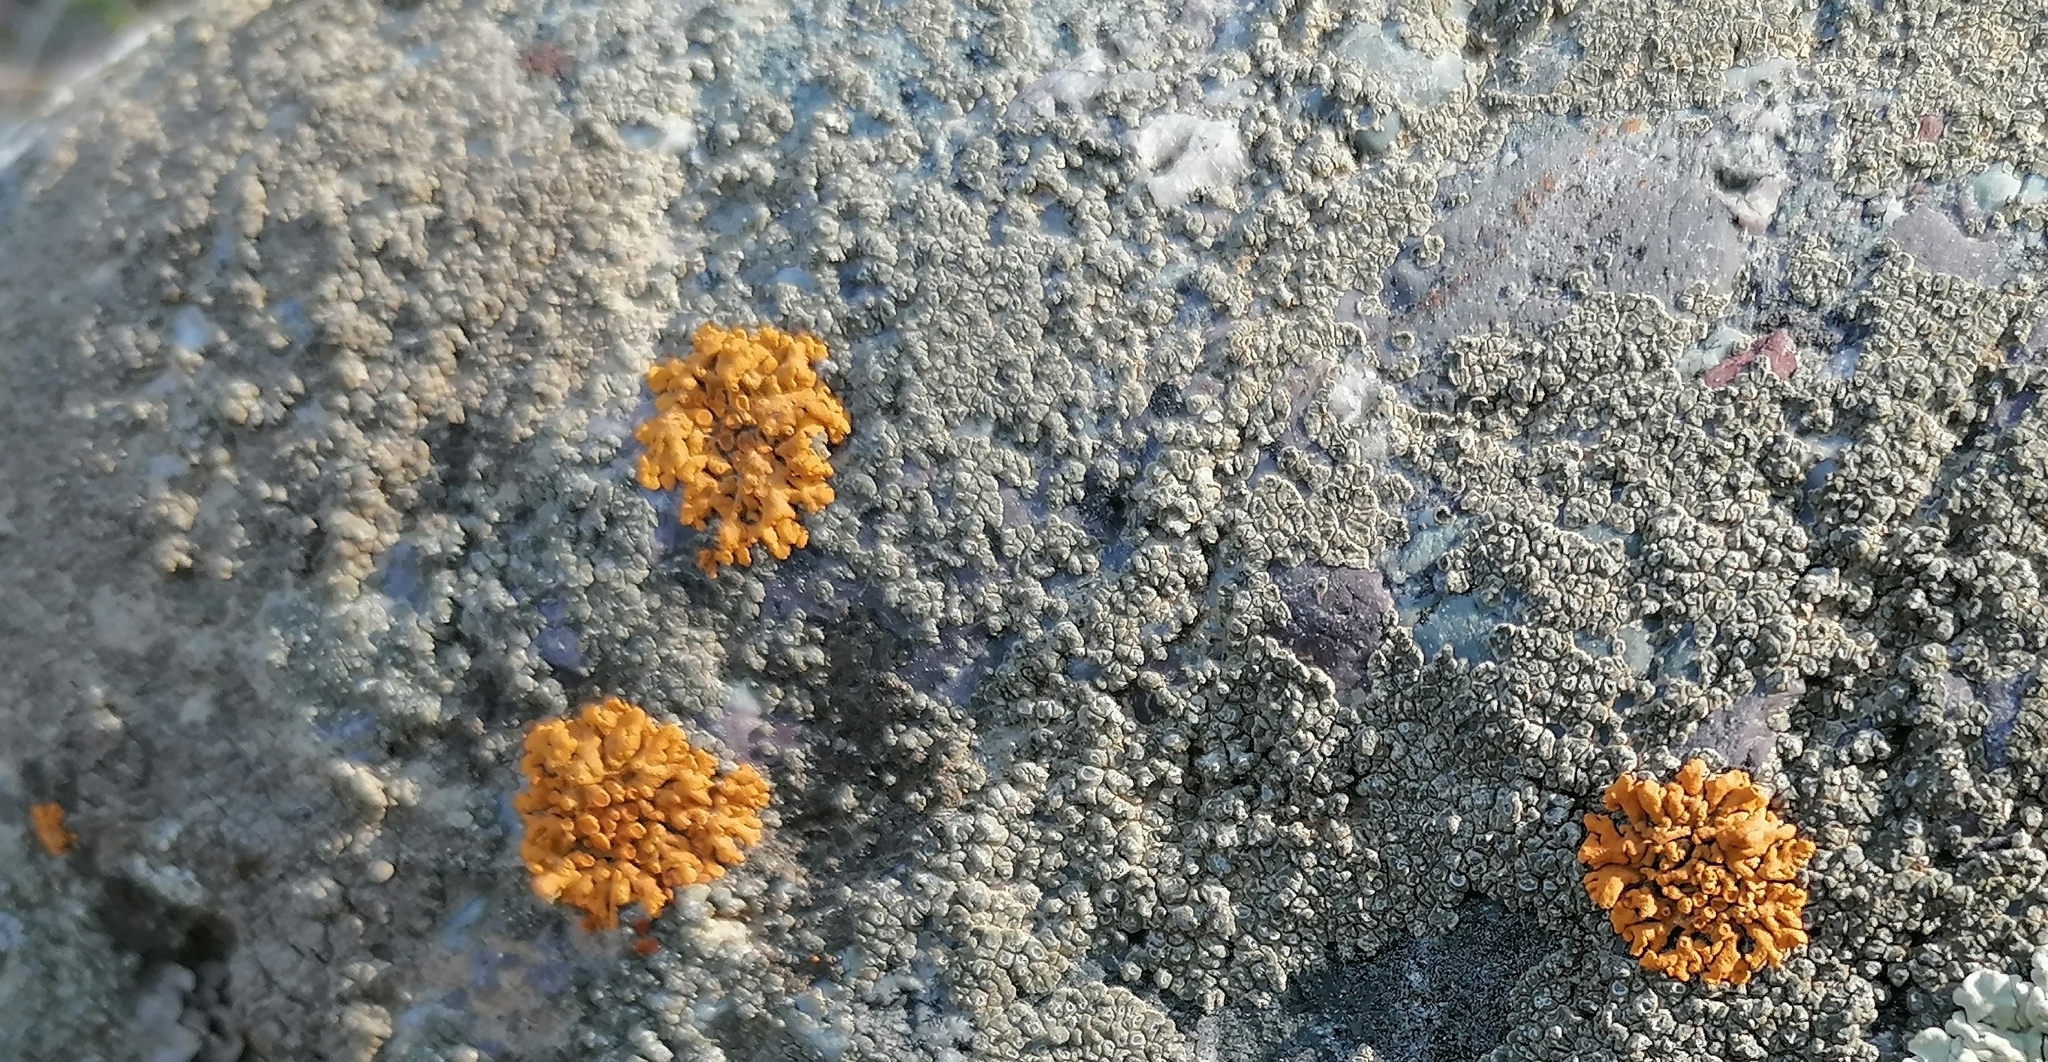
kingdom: Fungi
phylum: Ascomycota
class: Lecanoromycetes
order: Teloschistales
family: Teloschistaceae
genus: Xanthoria
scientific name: Xanthoria elegans
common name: Elegant sunburst lichen
